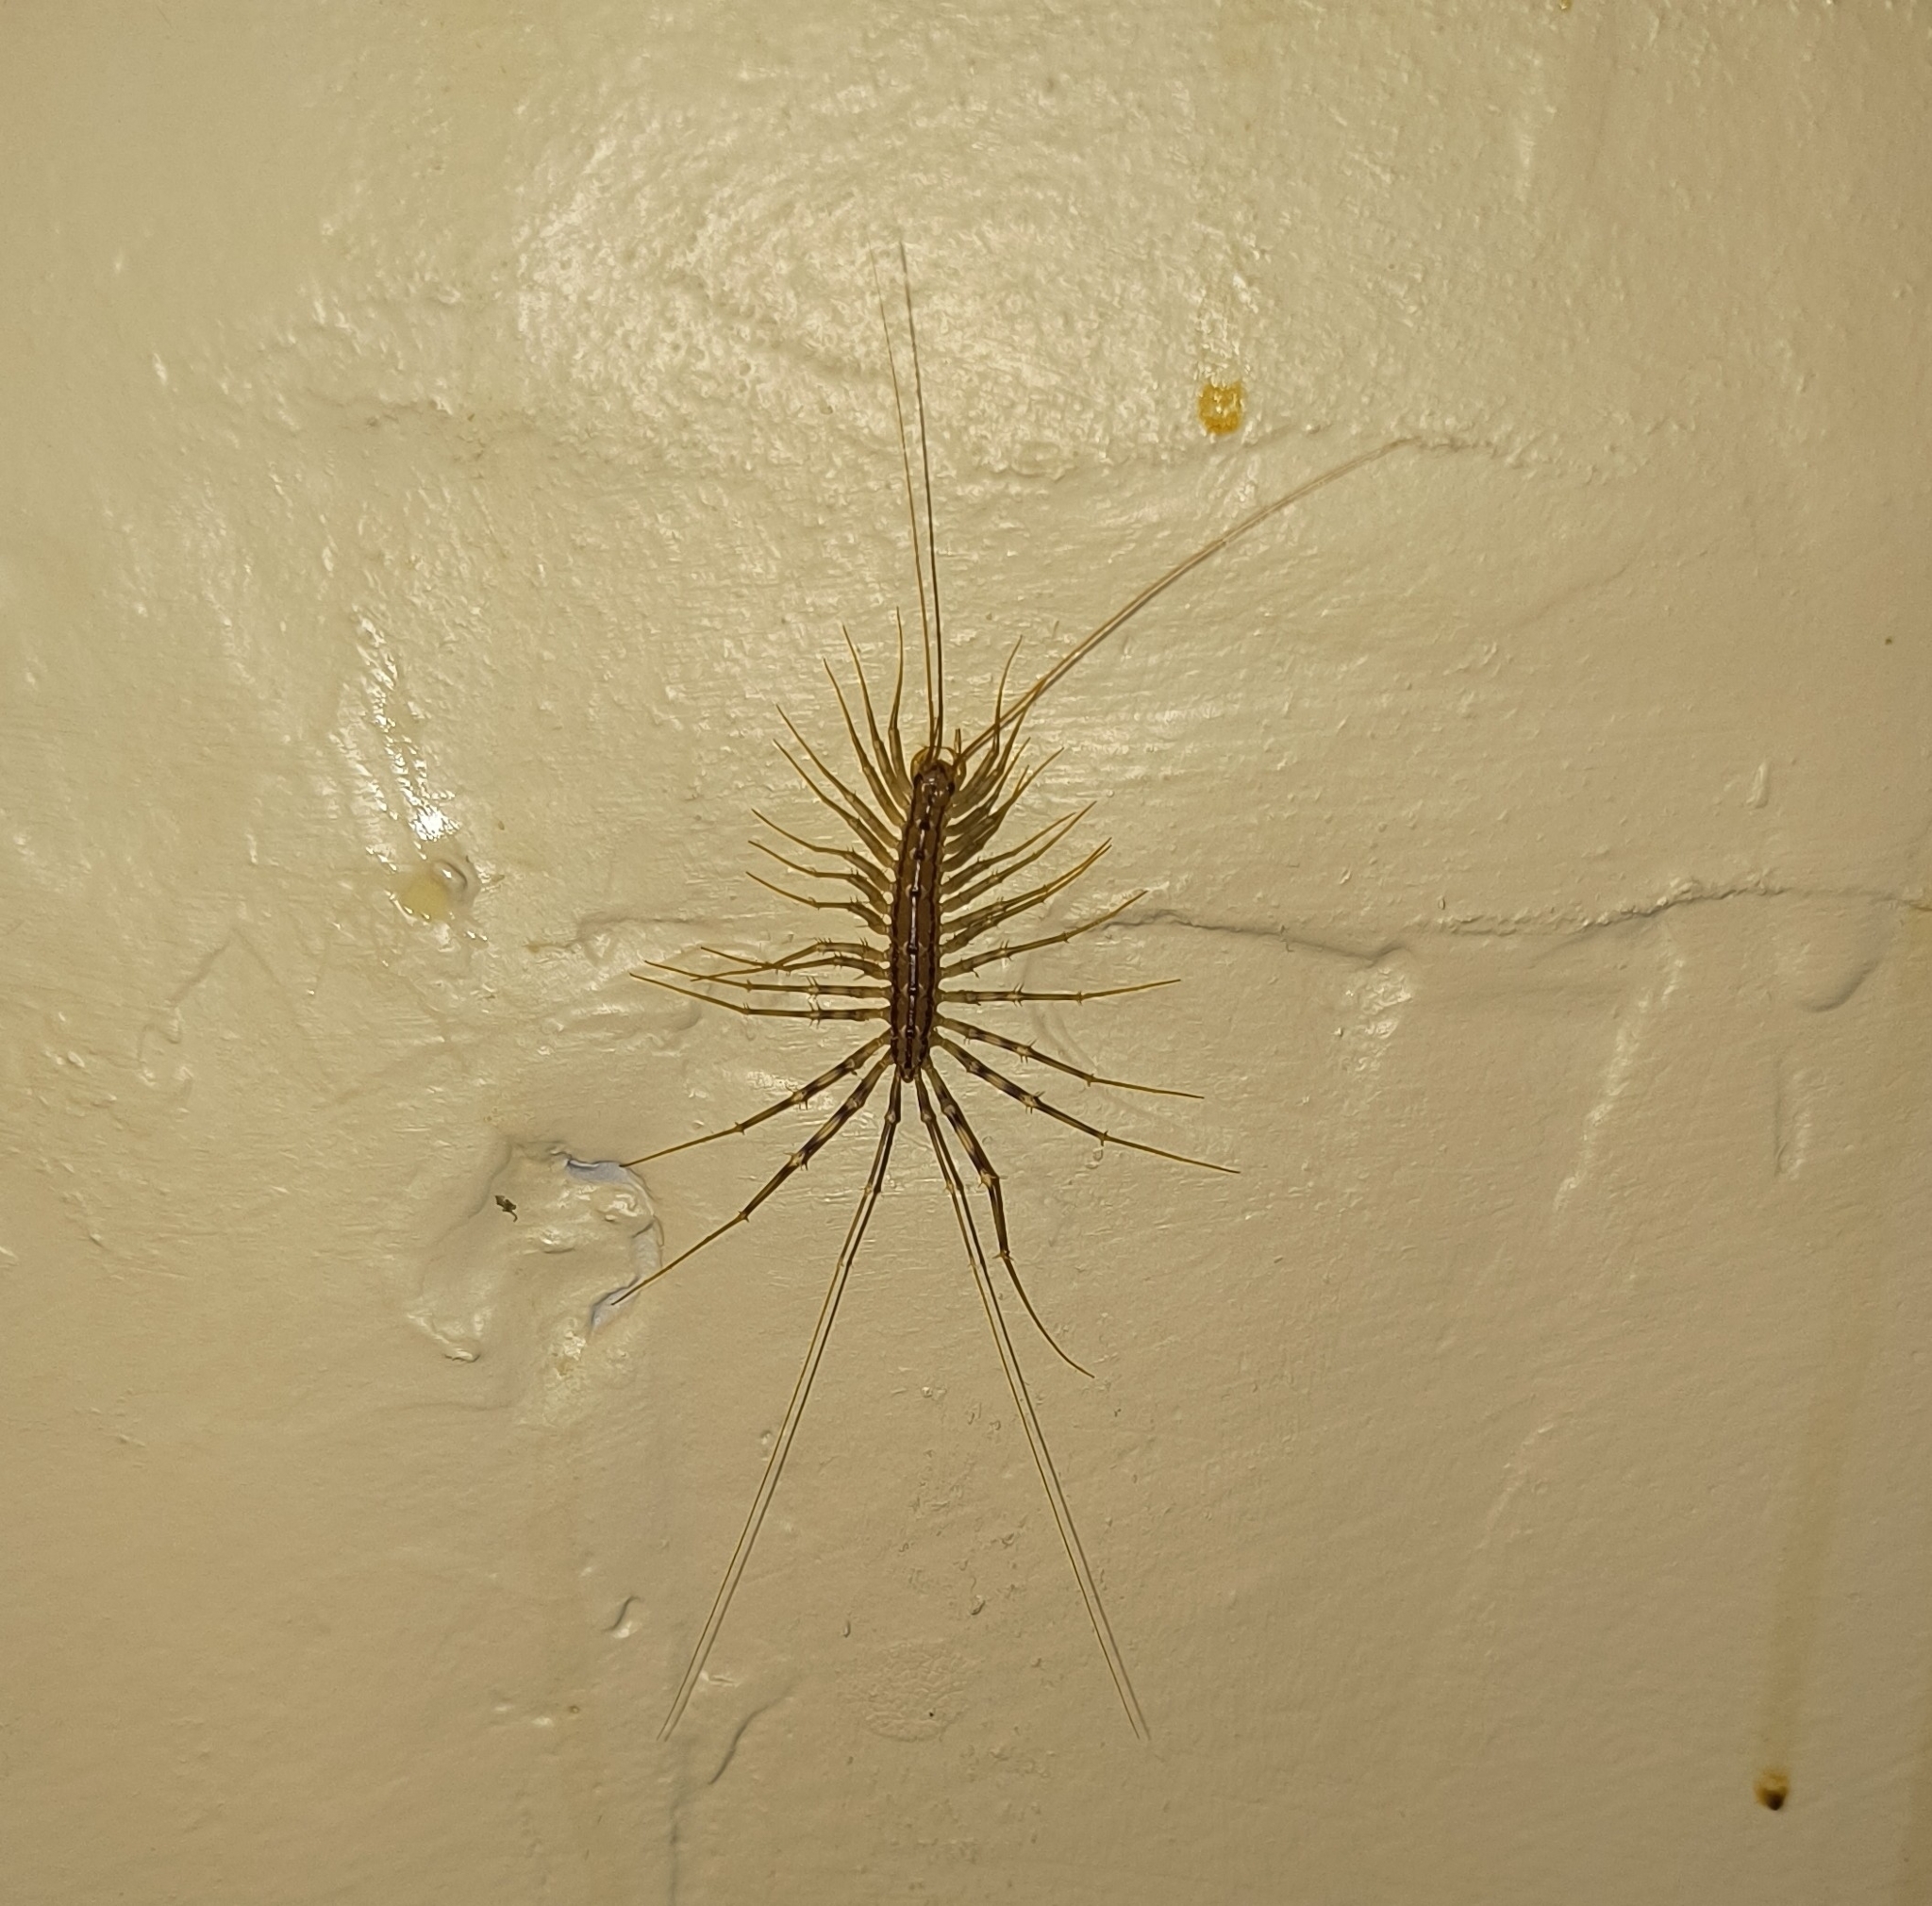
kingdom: Animalia
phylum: Arthropoda
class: Chilopoda
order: Scutigeromorpha
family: Scutigeridae
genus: Scutigera
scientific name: Scutigera coleoptrata
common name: House centipede
